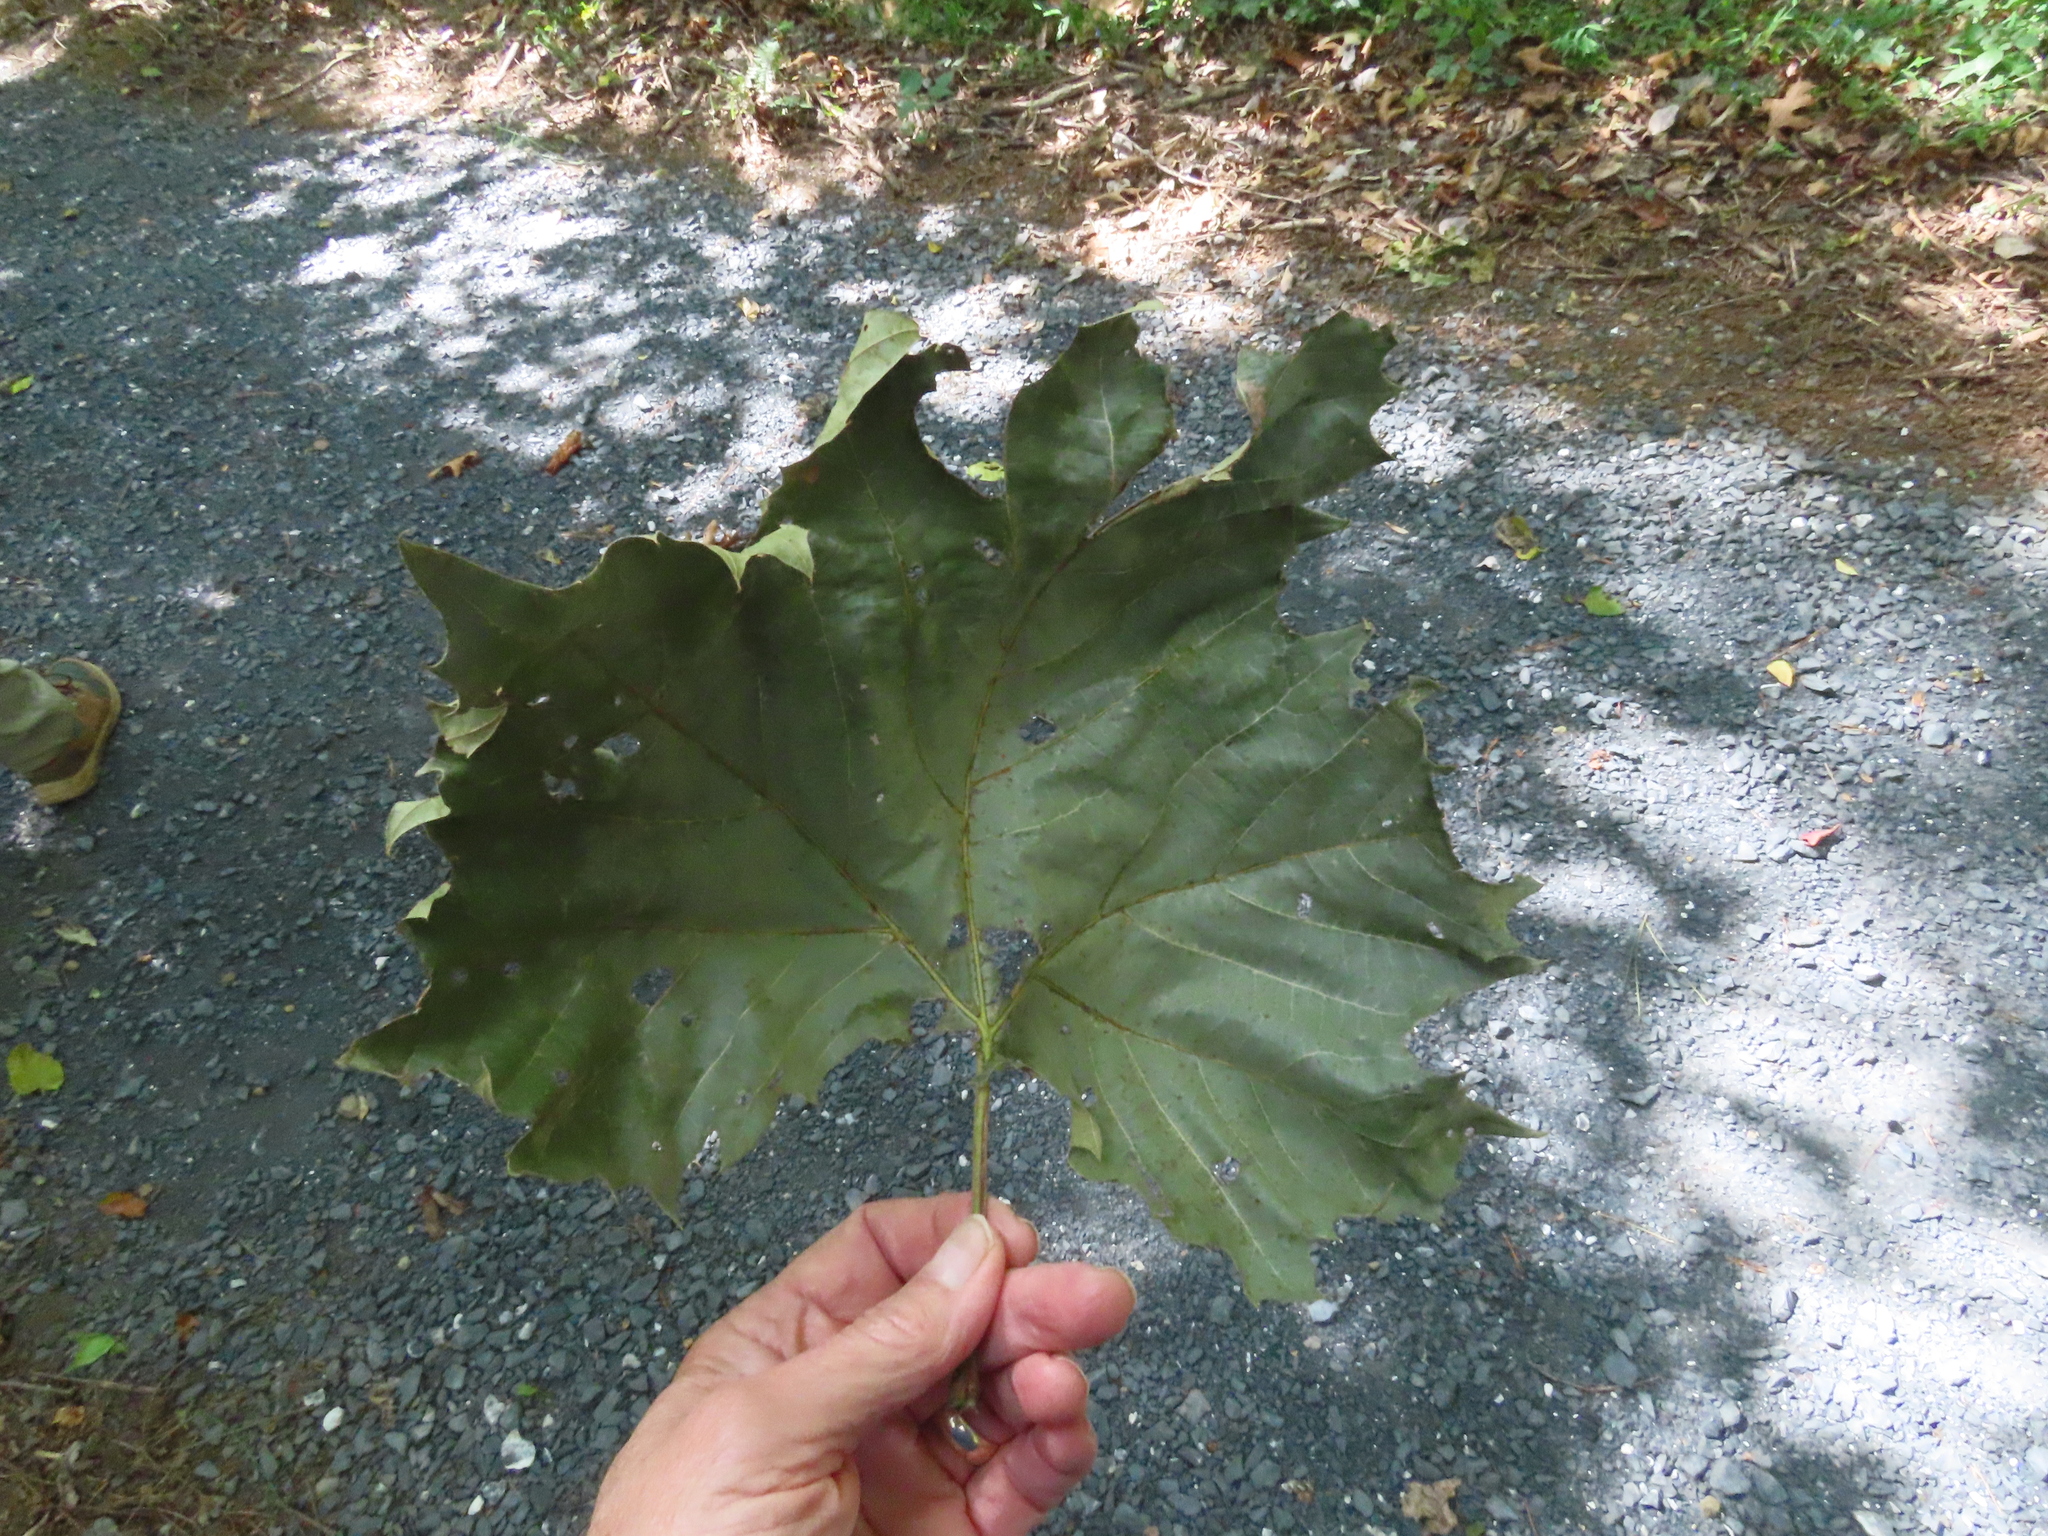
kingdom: Plantae
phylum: Tracheophyta
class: Magnoliopsida
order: Proteales
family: Platanaceae
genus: Platanus
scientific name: Platanus occidentalis
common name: American sycamore
